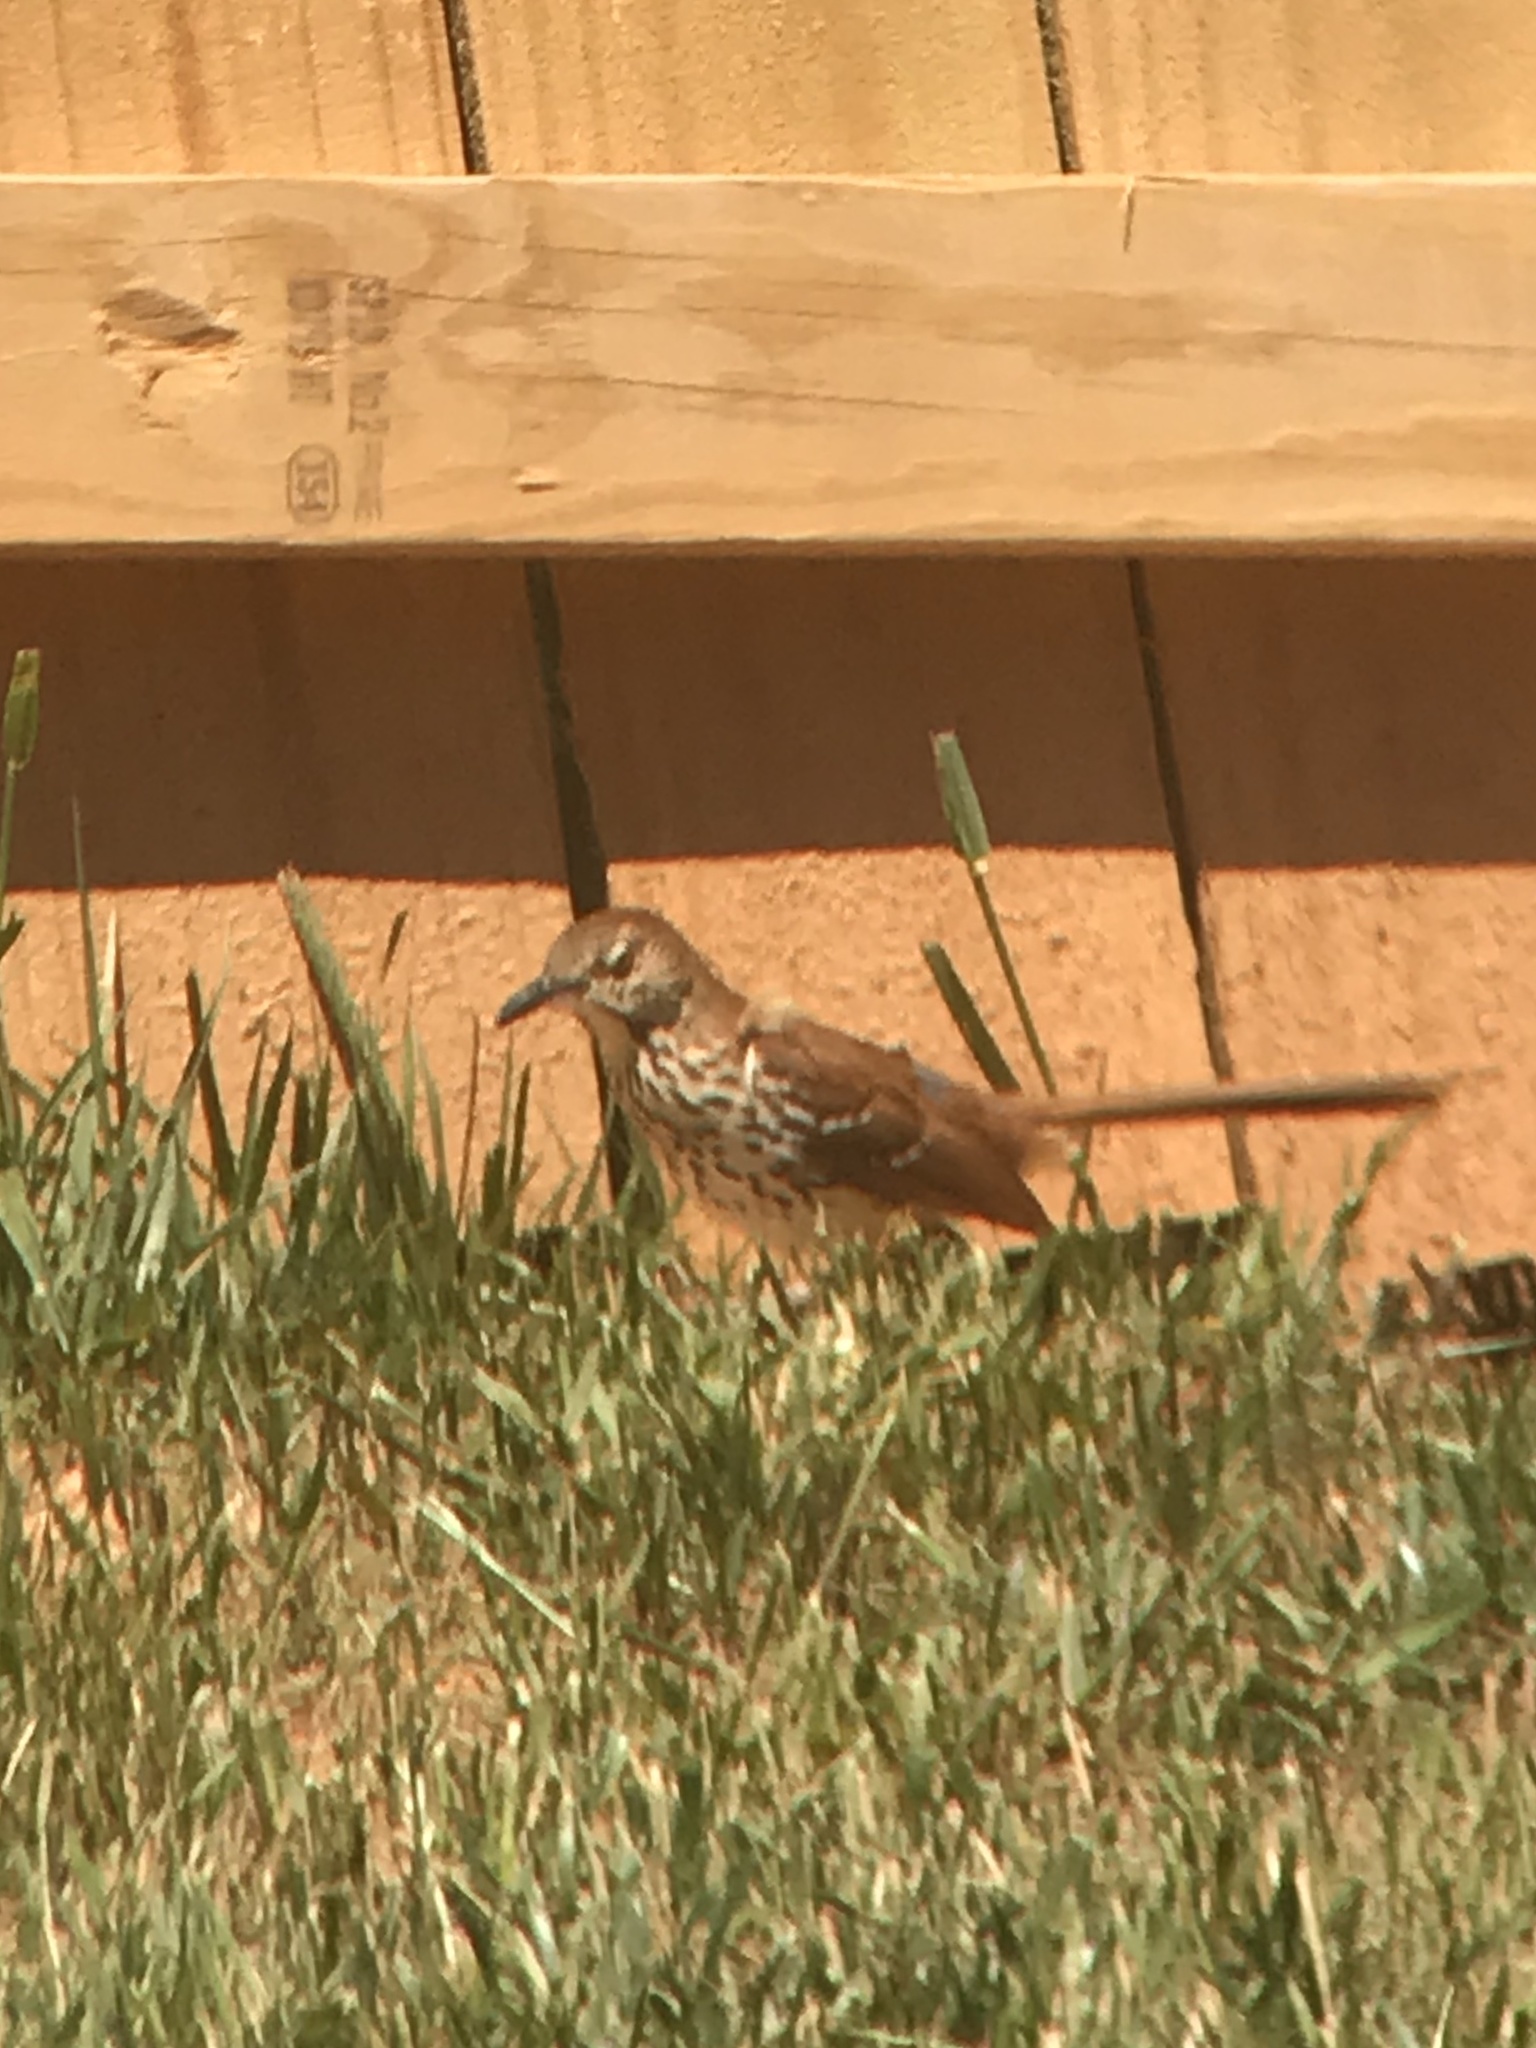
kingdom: Animalia
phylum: Chordata
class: Aves
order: Passeriformes
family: Mimidae
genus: Toxostoma
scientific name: Toxostoma rufum
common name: Brown thrasher
